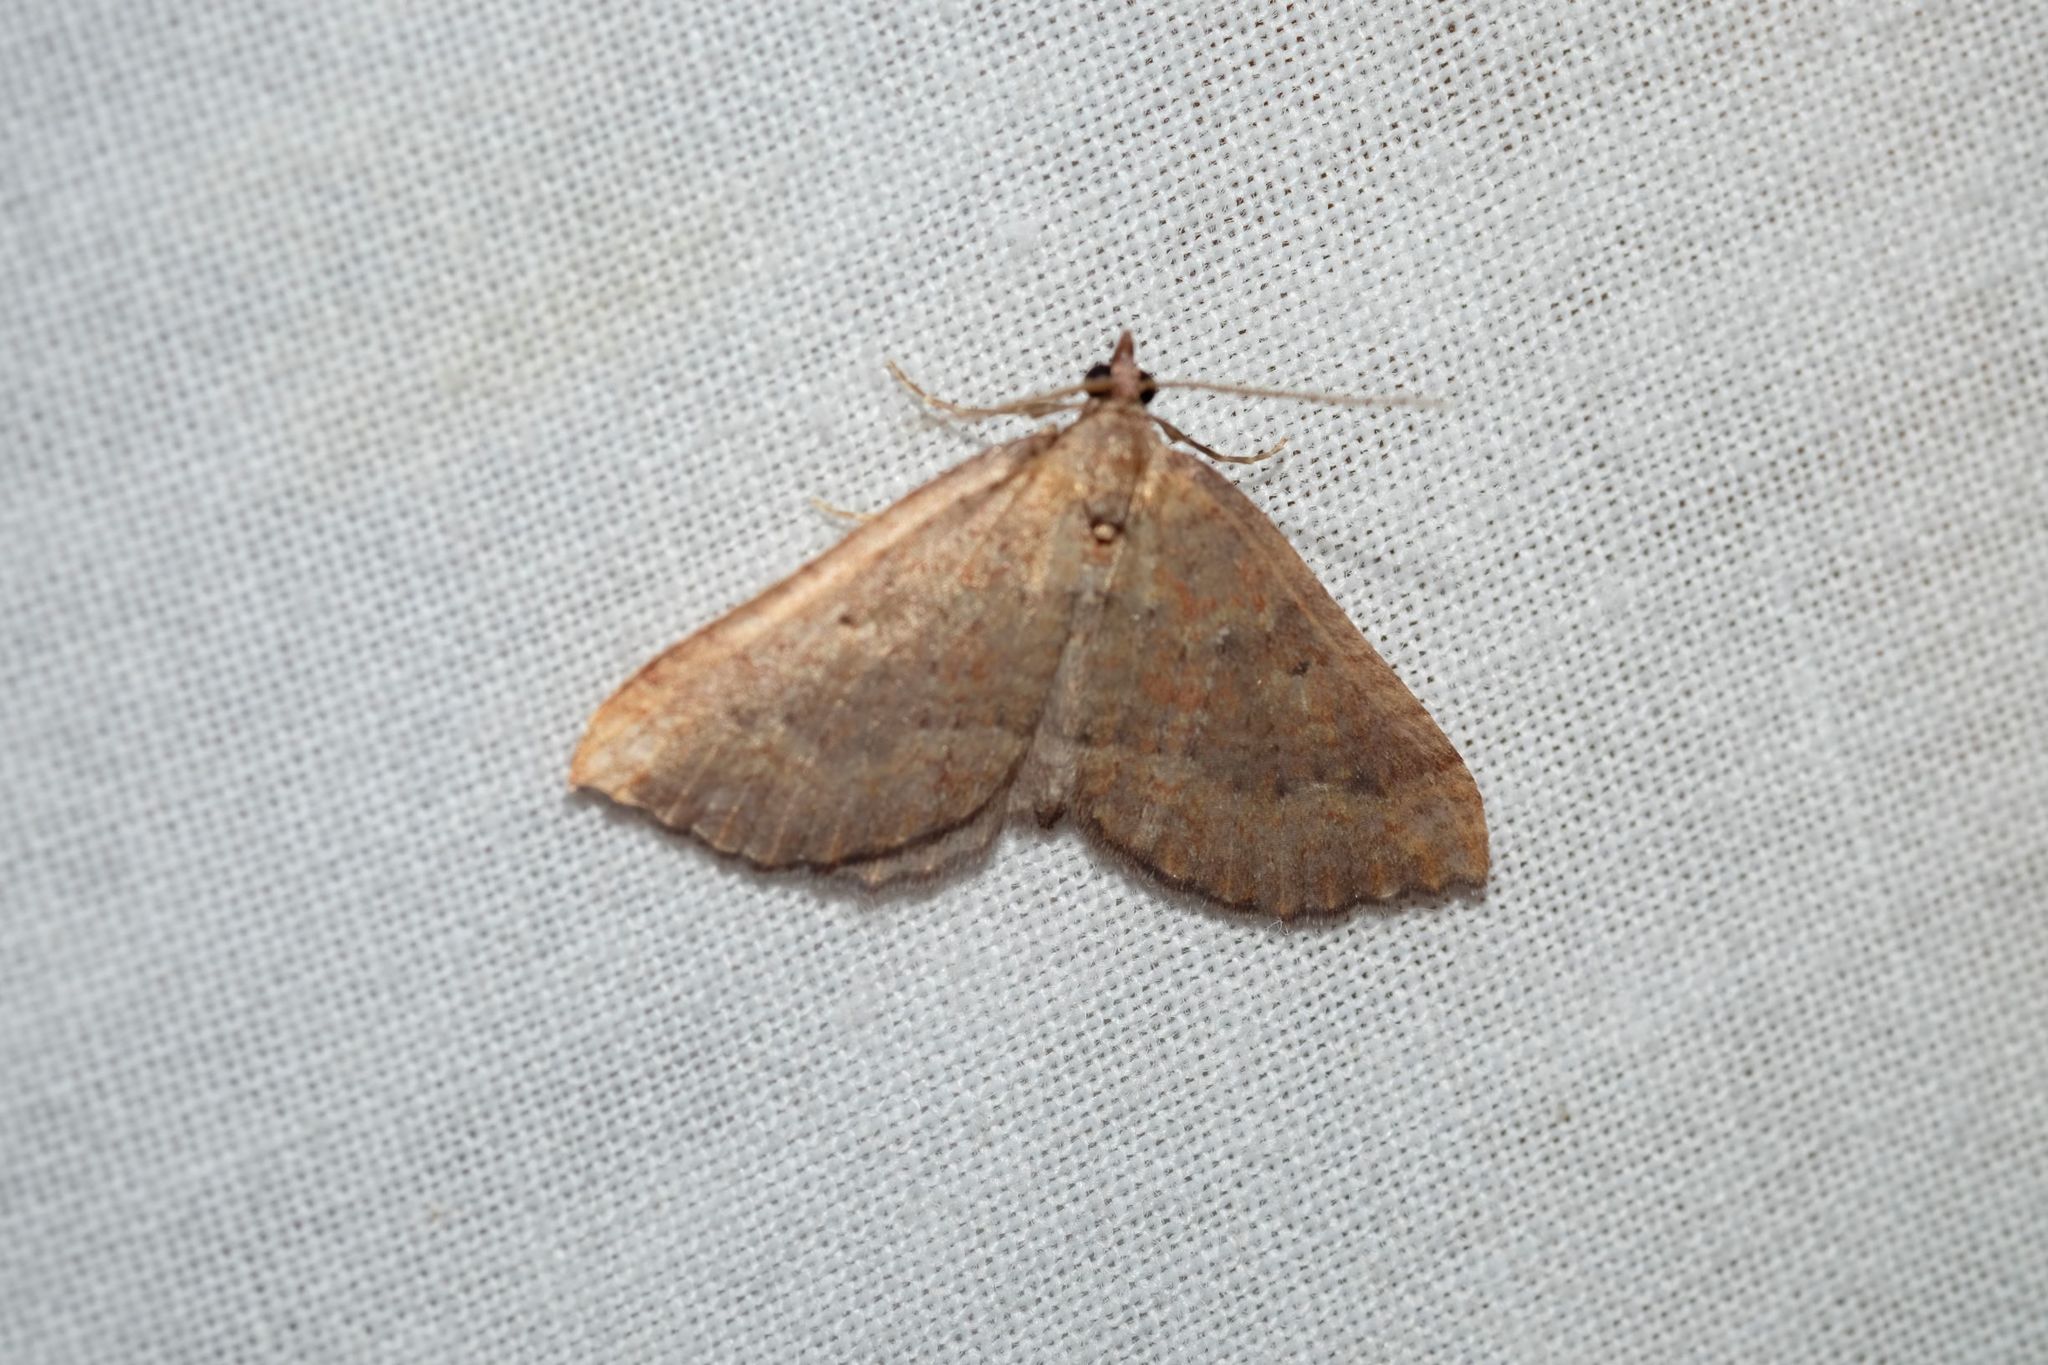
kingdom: Animalia
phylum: Arthropoda
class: Insecta
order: Lepidoptera
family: Geometridae
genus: Chrysolarentia
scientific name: Chrysolarentia trygodes
